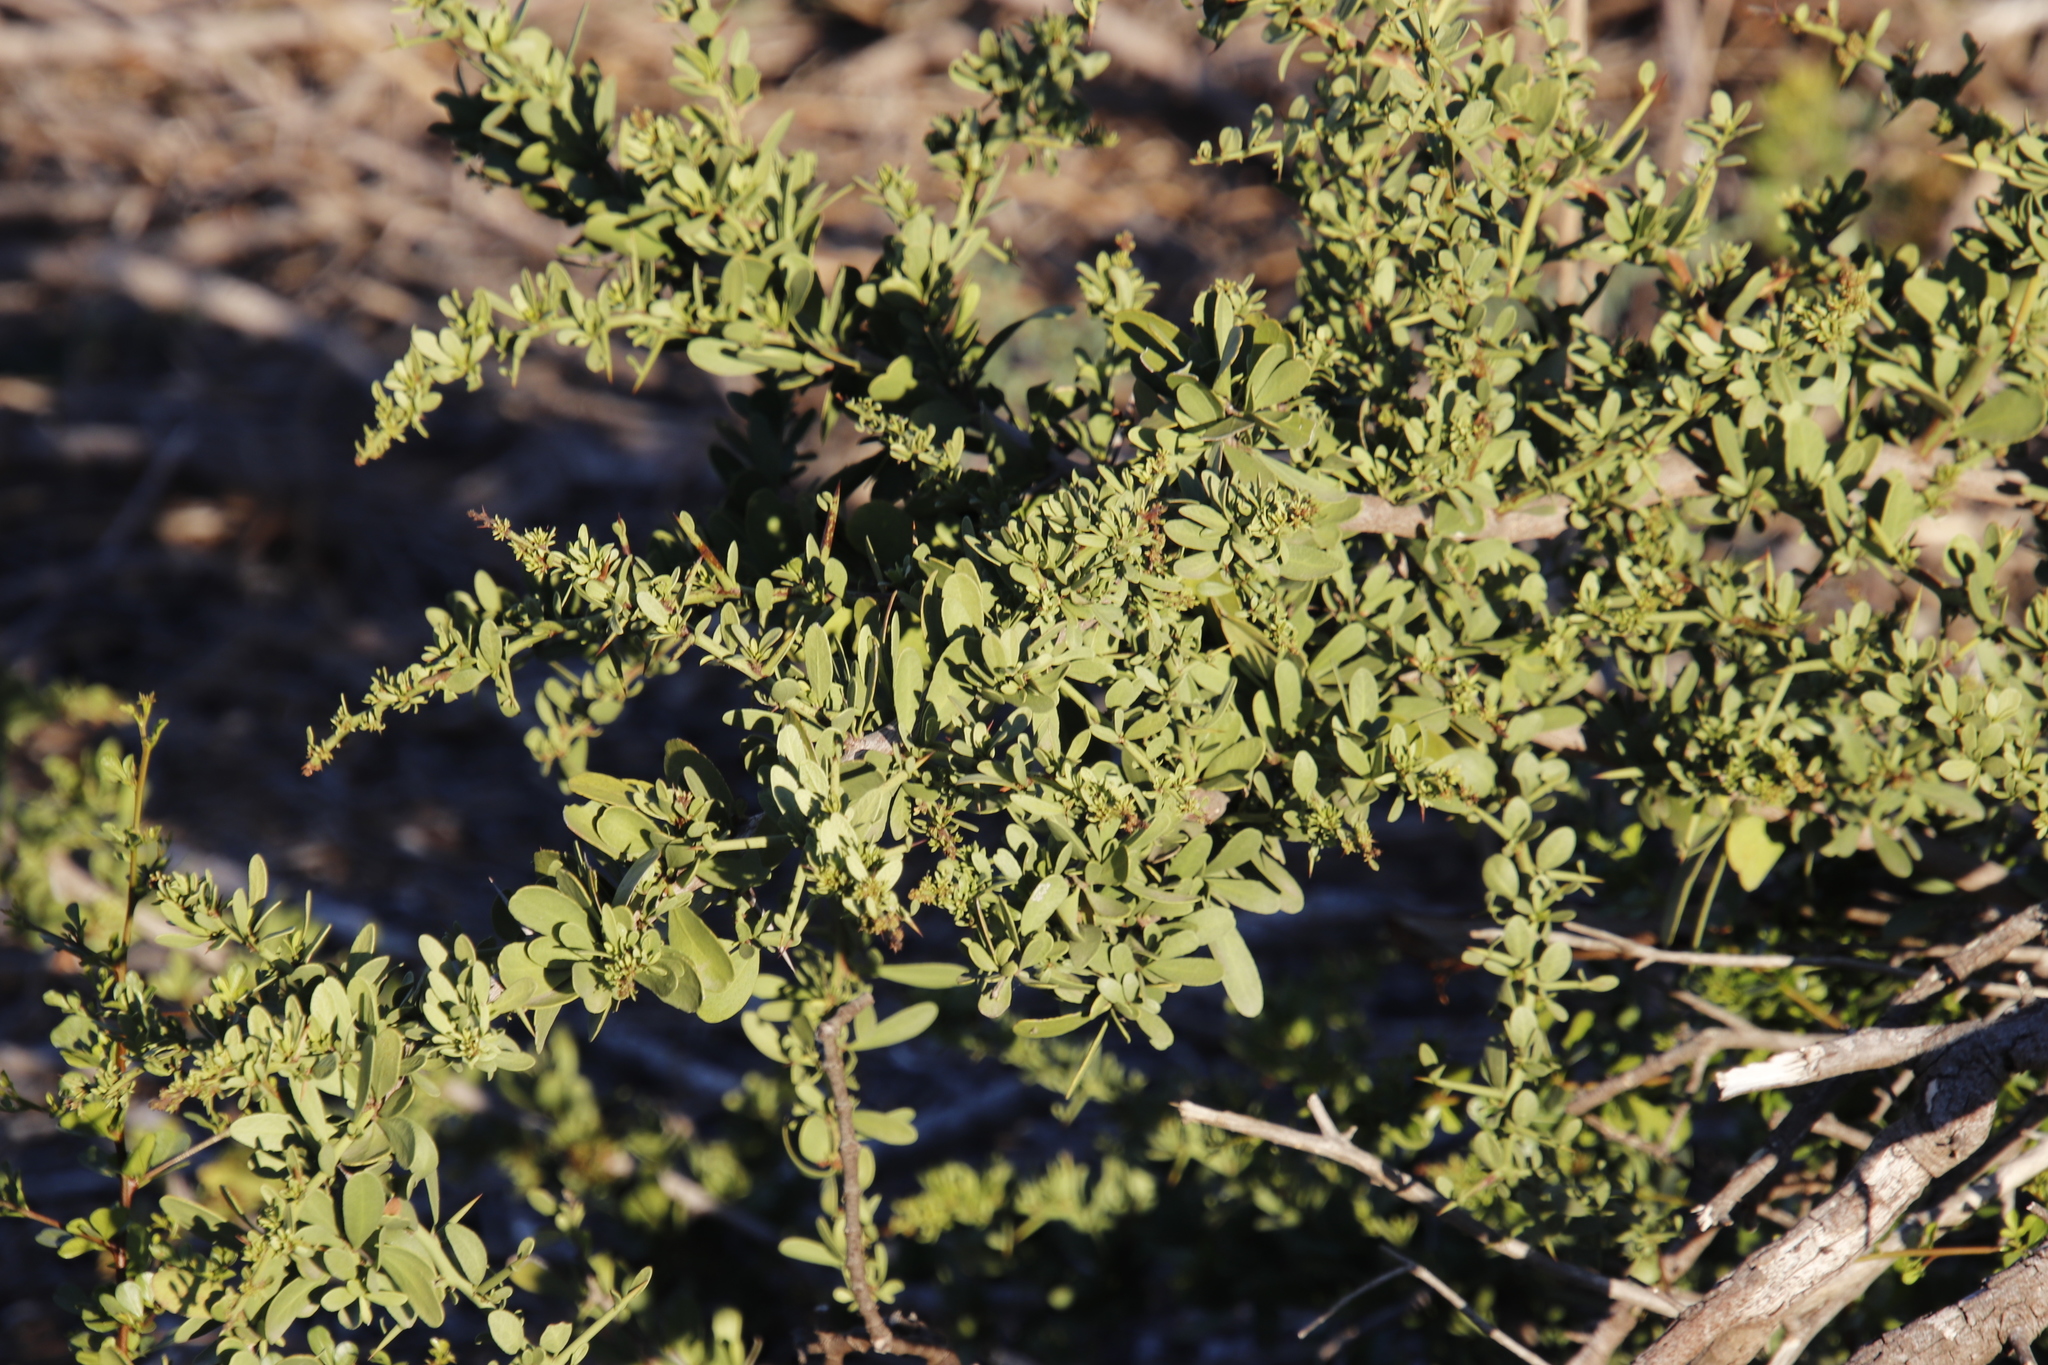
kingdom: Plantae
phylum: Tracheophyta
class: Magnoliopsida
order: Celastrales
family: Celastraceae
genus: Gymnosporia
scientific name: Gymnosporia buxifolia
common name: Common spike-thorn
